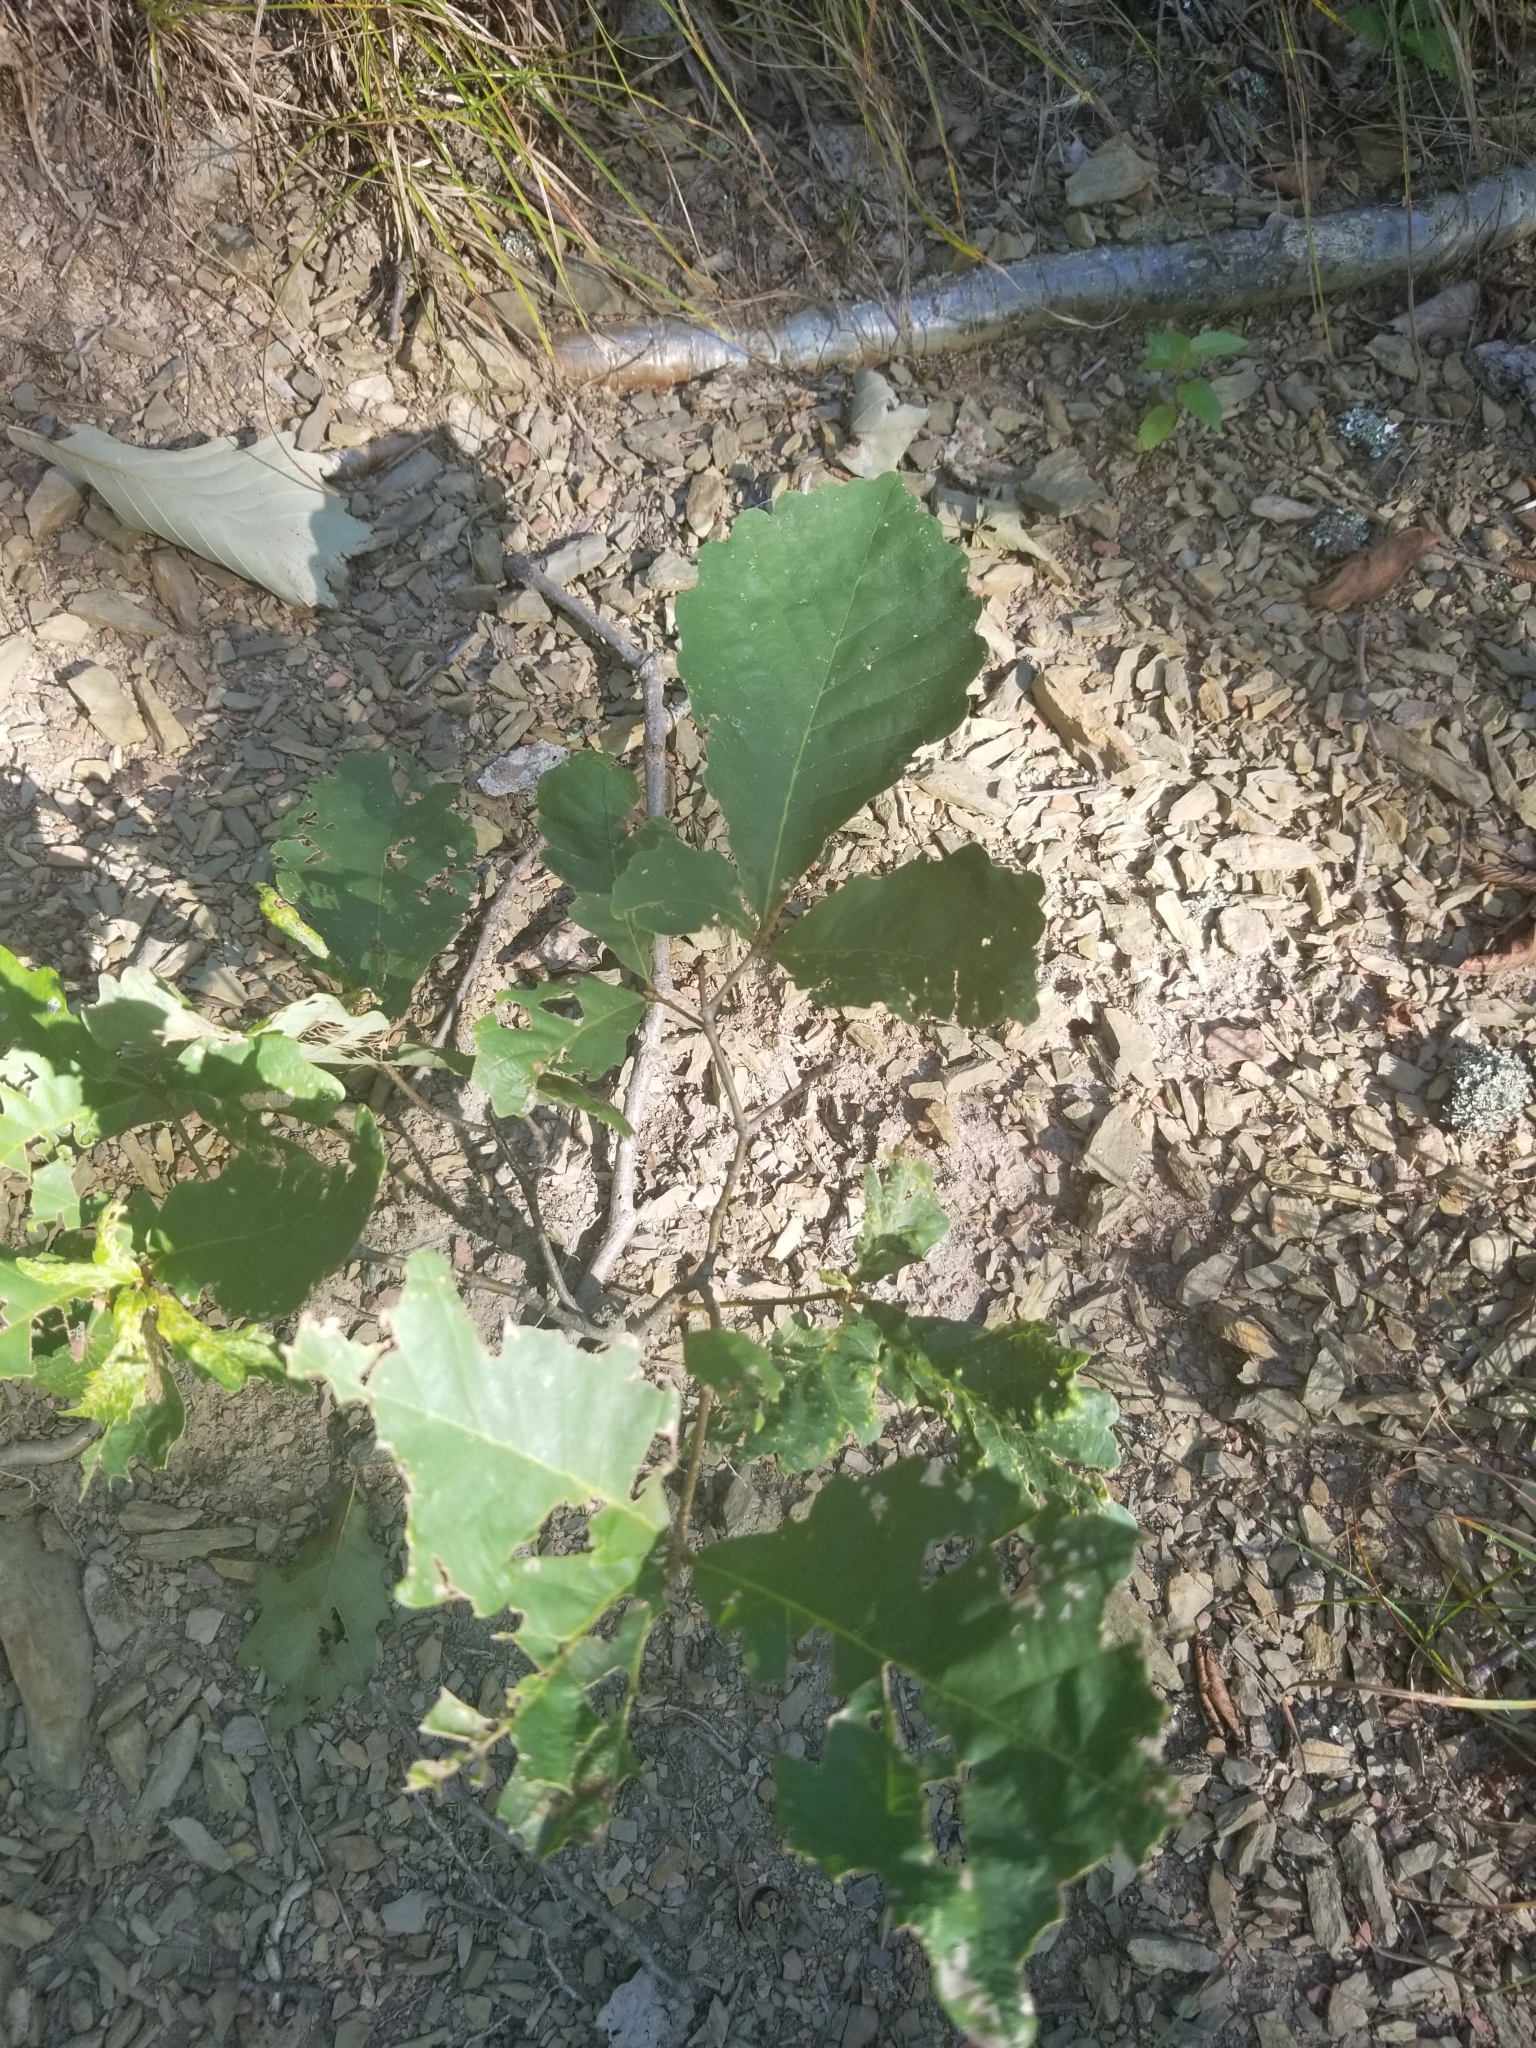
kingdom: Plantae
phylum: Tracheophyta
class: Magnoliopsida
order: Fagales
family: Fagaceae
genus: Quercus
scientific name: Quercus montana
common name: Chestnut oak
